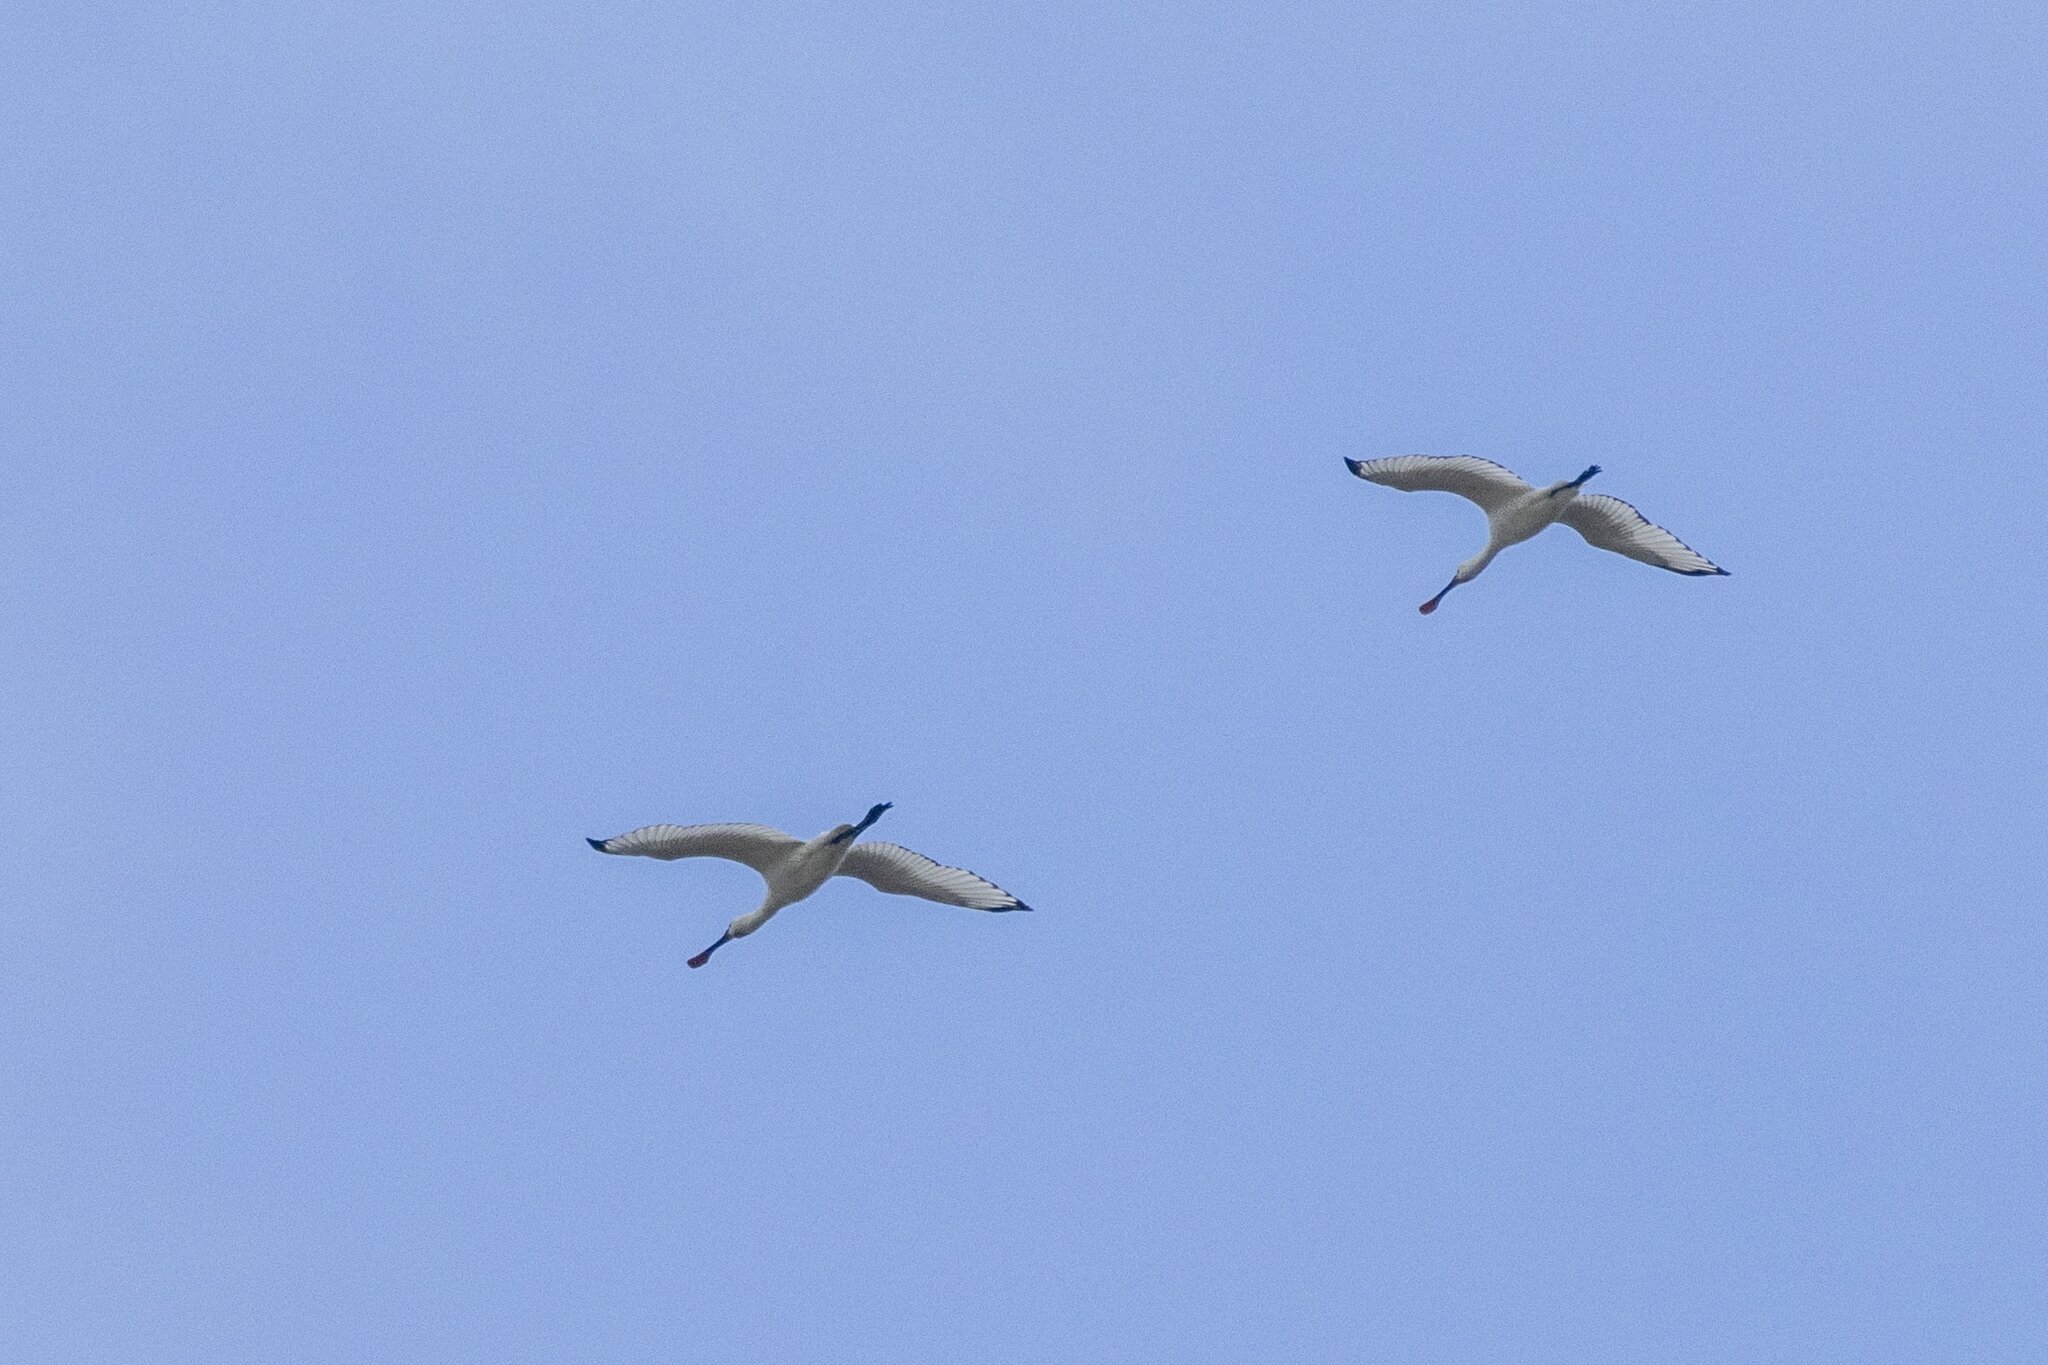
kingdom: Animalia
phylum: Chordata
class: Aves
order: Pelecaniformes
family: Threskiornithidae
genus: Platalea
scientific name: Platalea leucorodia
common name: Eurasian spoonbill
